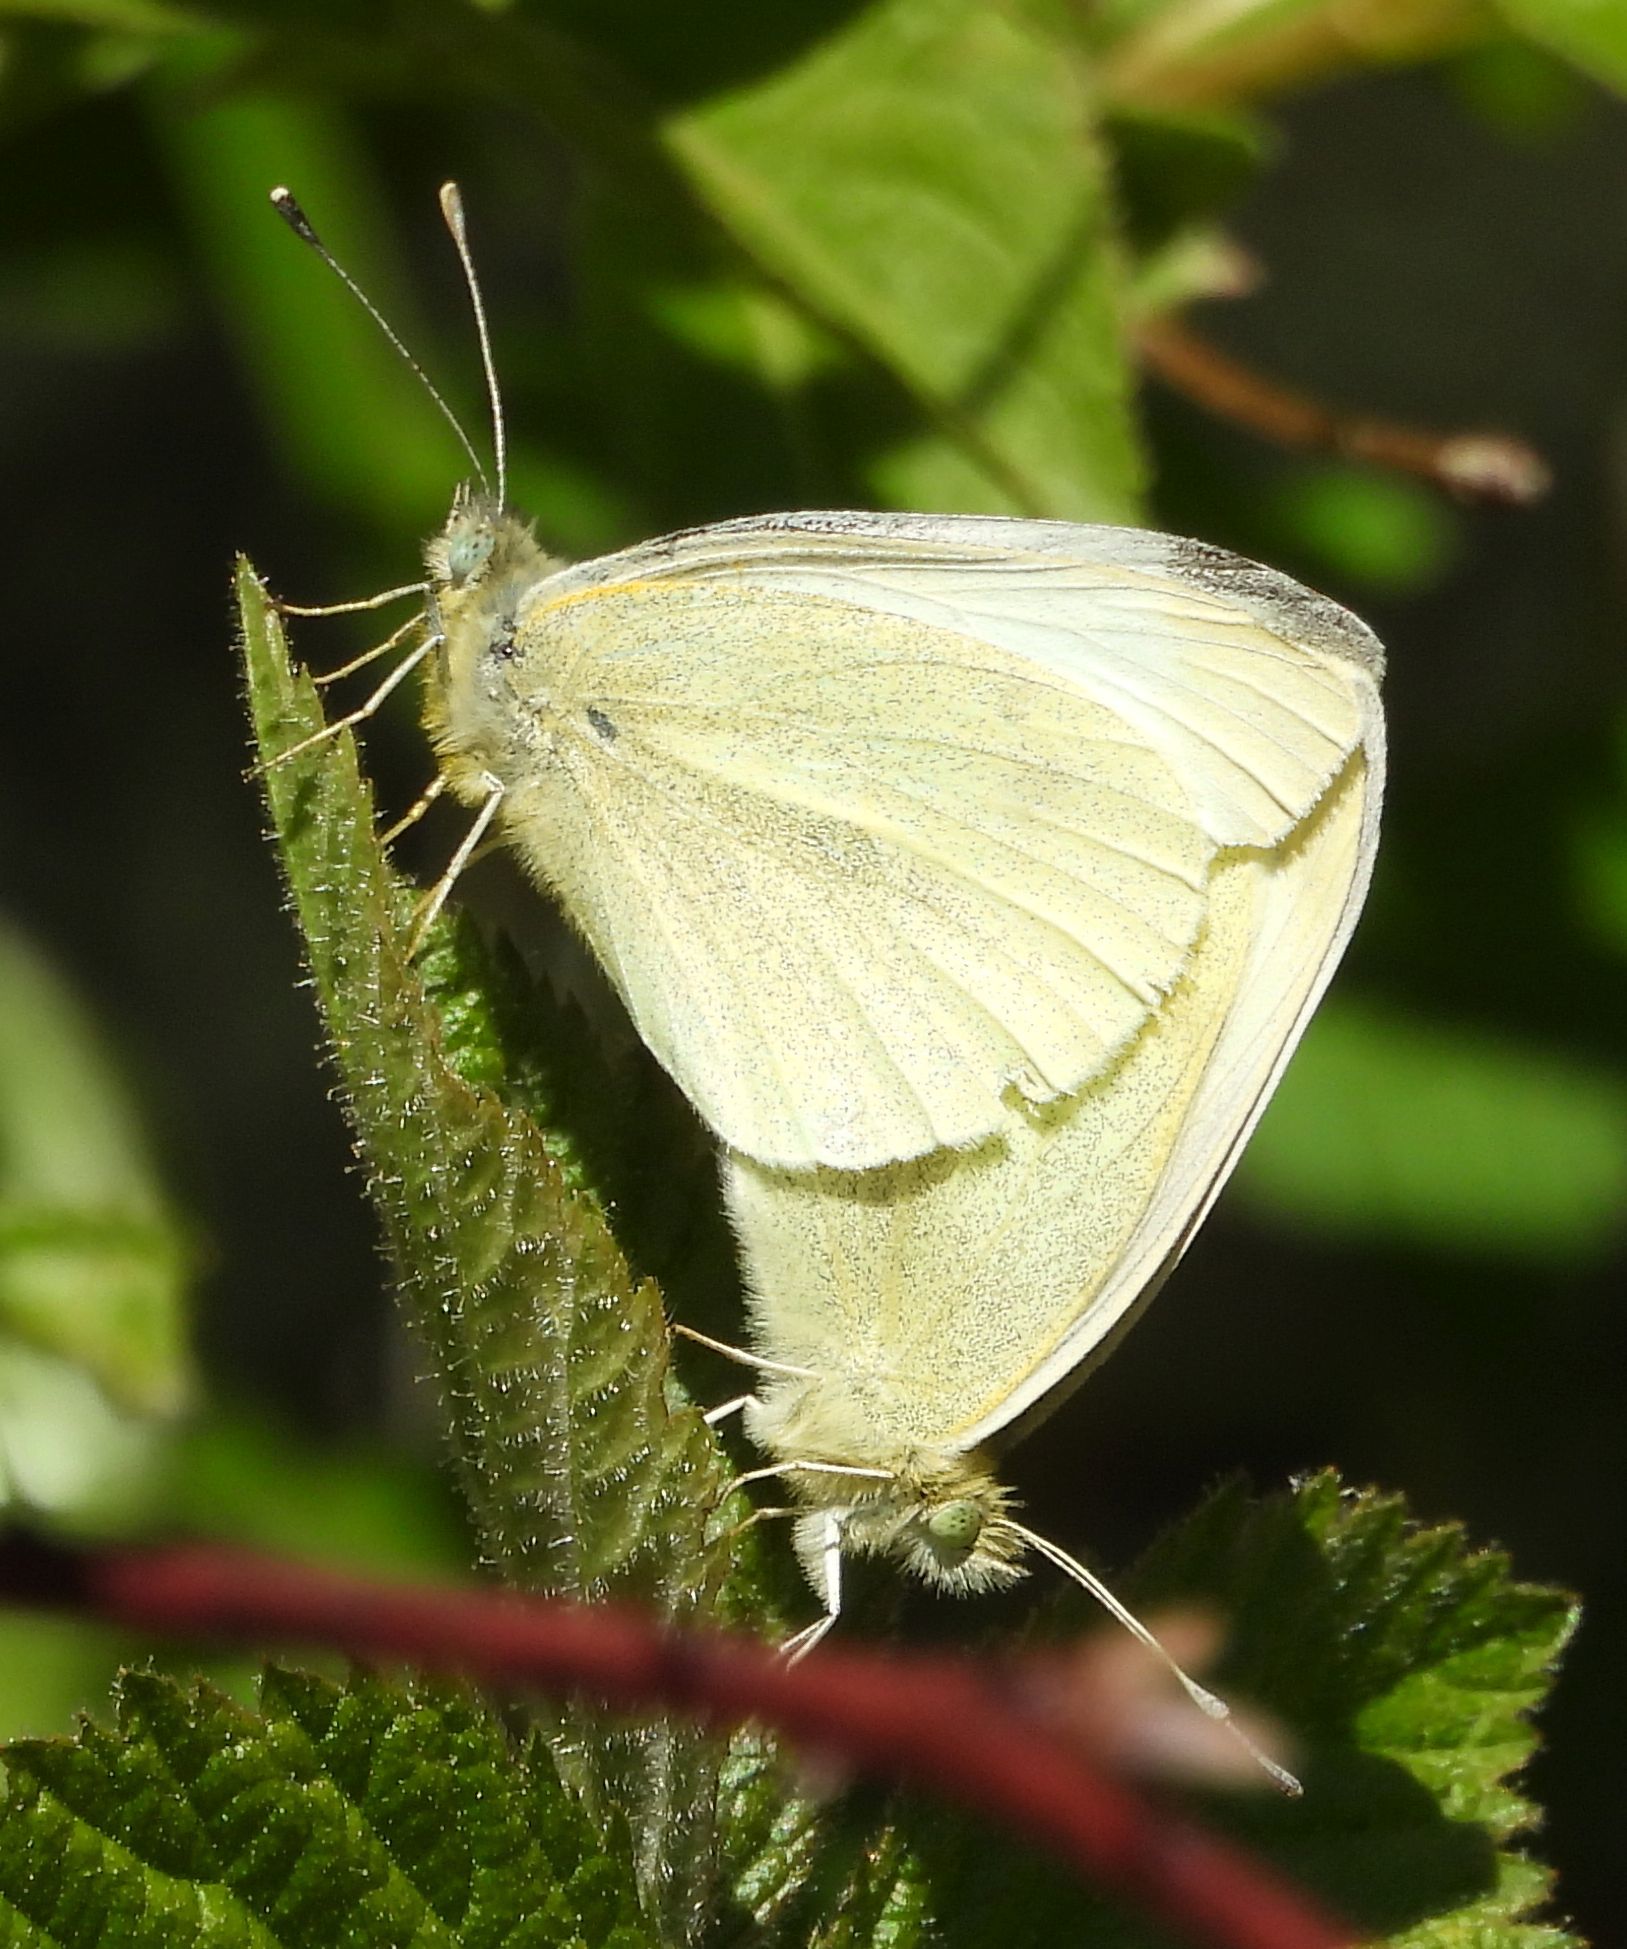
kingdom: Animalia
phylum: Arthropoda
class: Insecta
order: Lepidoptera
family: Pieridae
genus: Pieris
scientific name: Pieris rapae
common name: Small white
